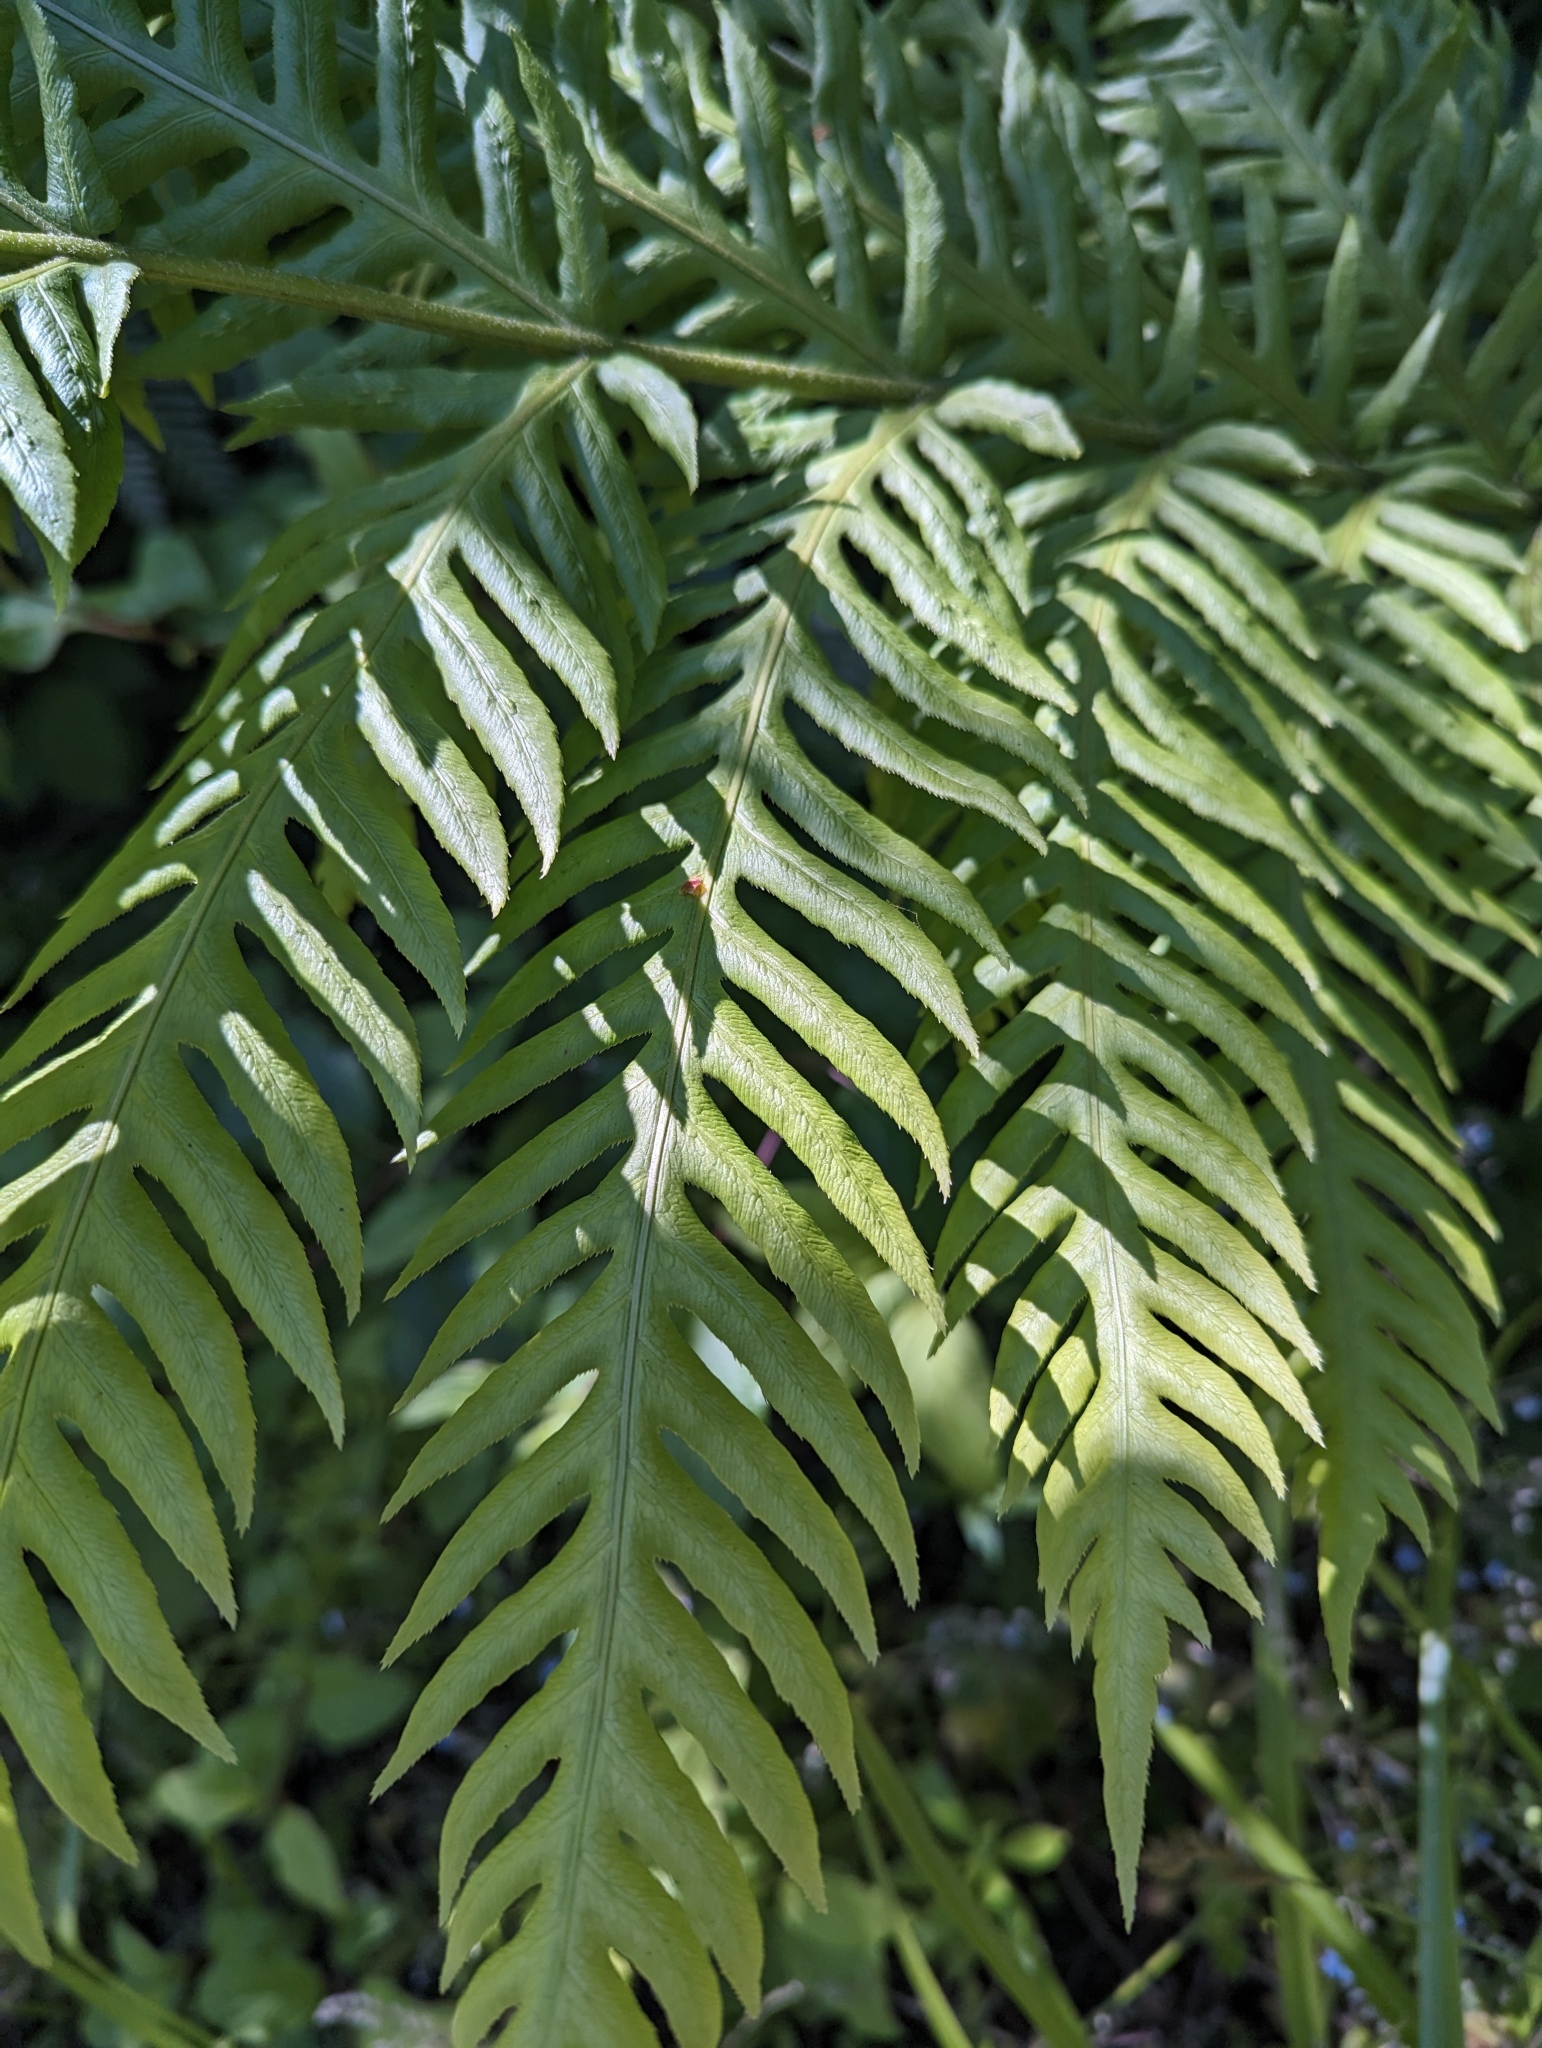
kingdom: Plantae
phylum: Tracheophyta
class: Polypodiopsida
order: Polypodiales
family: Blechnaceae
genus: Woodwardia
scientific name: Woodwardia fimbriata
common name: Giant chain fern
